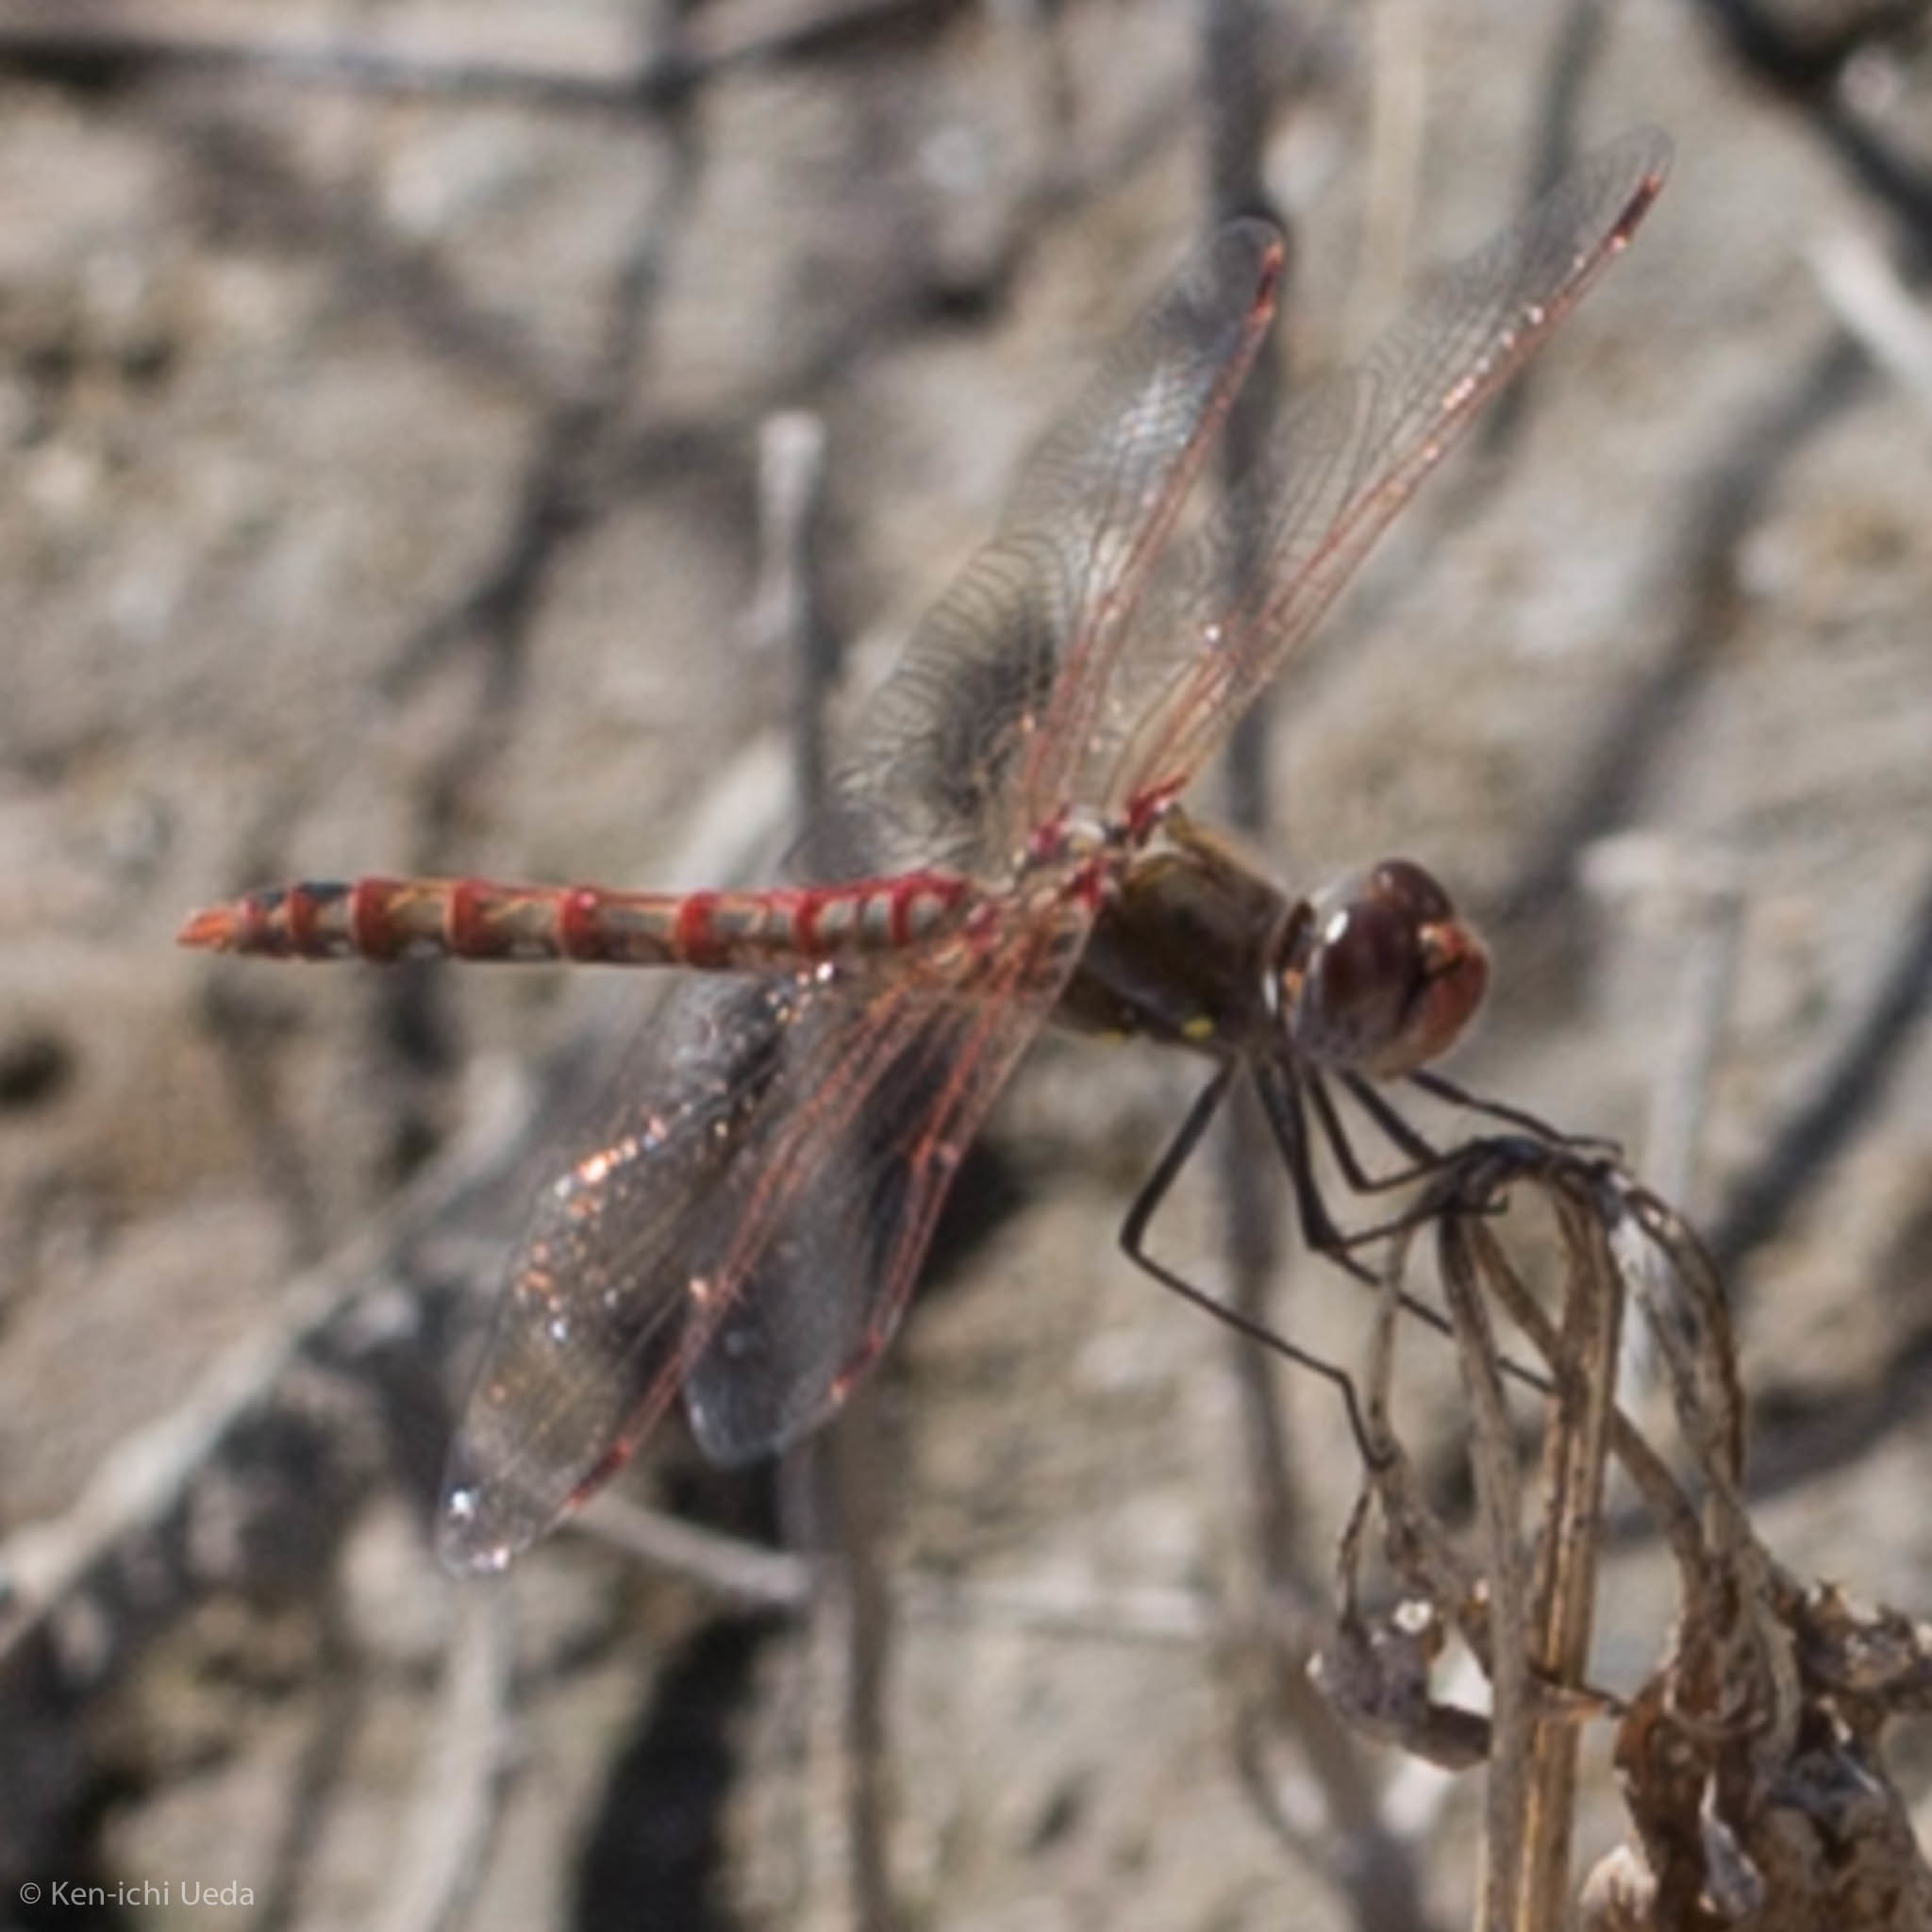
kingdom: Animalia
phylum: Arthropoda
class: Insecta
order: Odonata
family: Libellulidae
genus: Sympetrum
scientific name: Sympetrum corruptum
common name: Variegated meadowhawk
